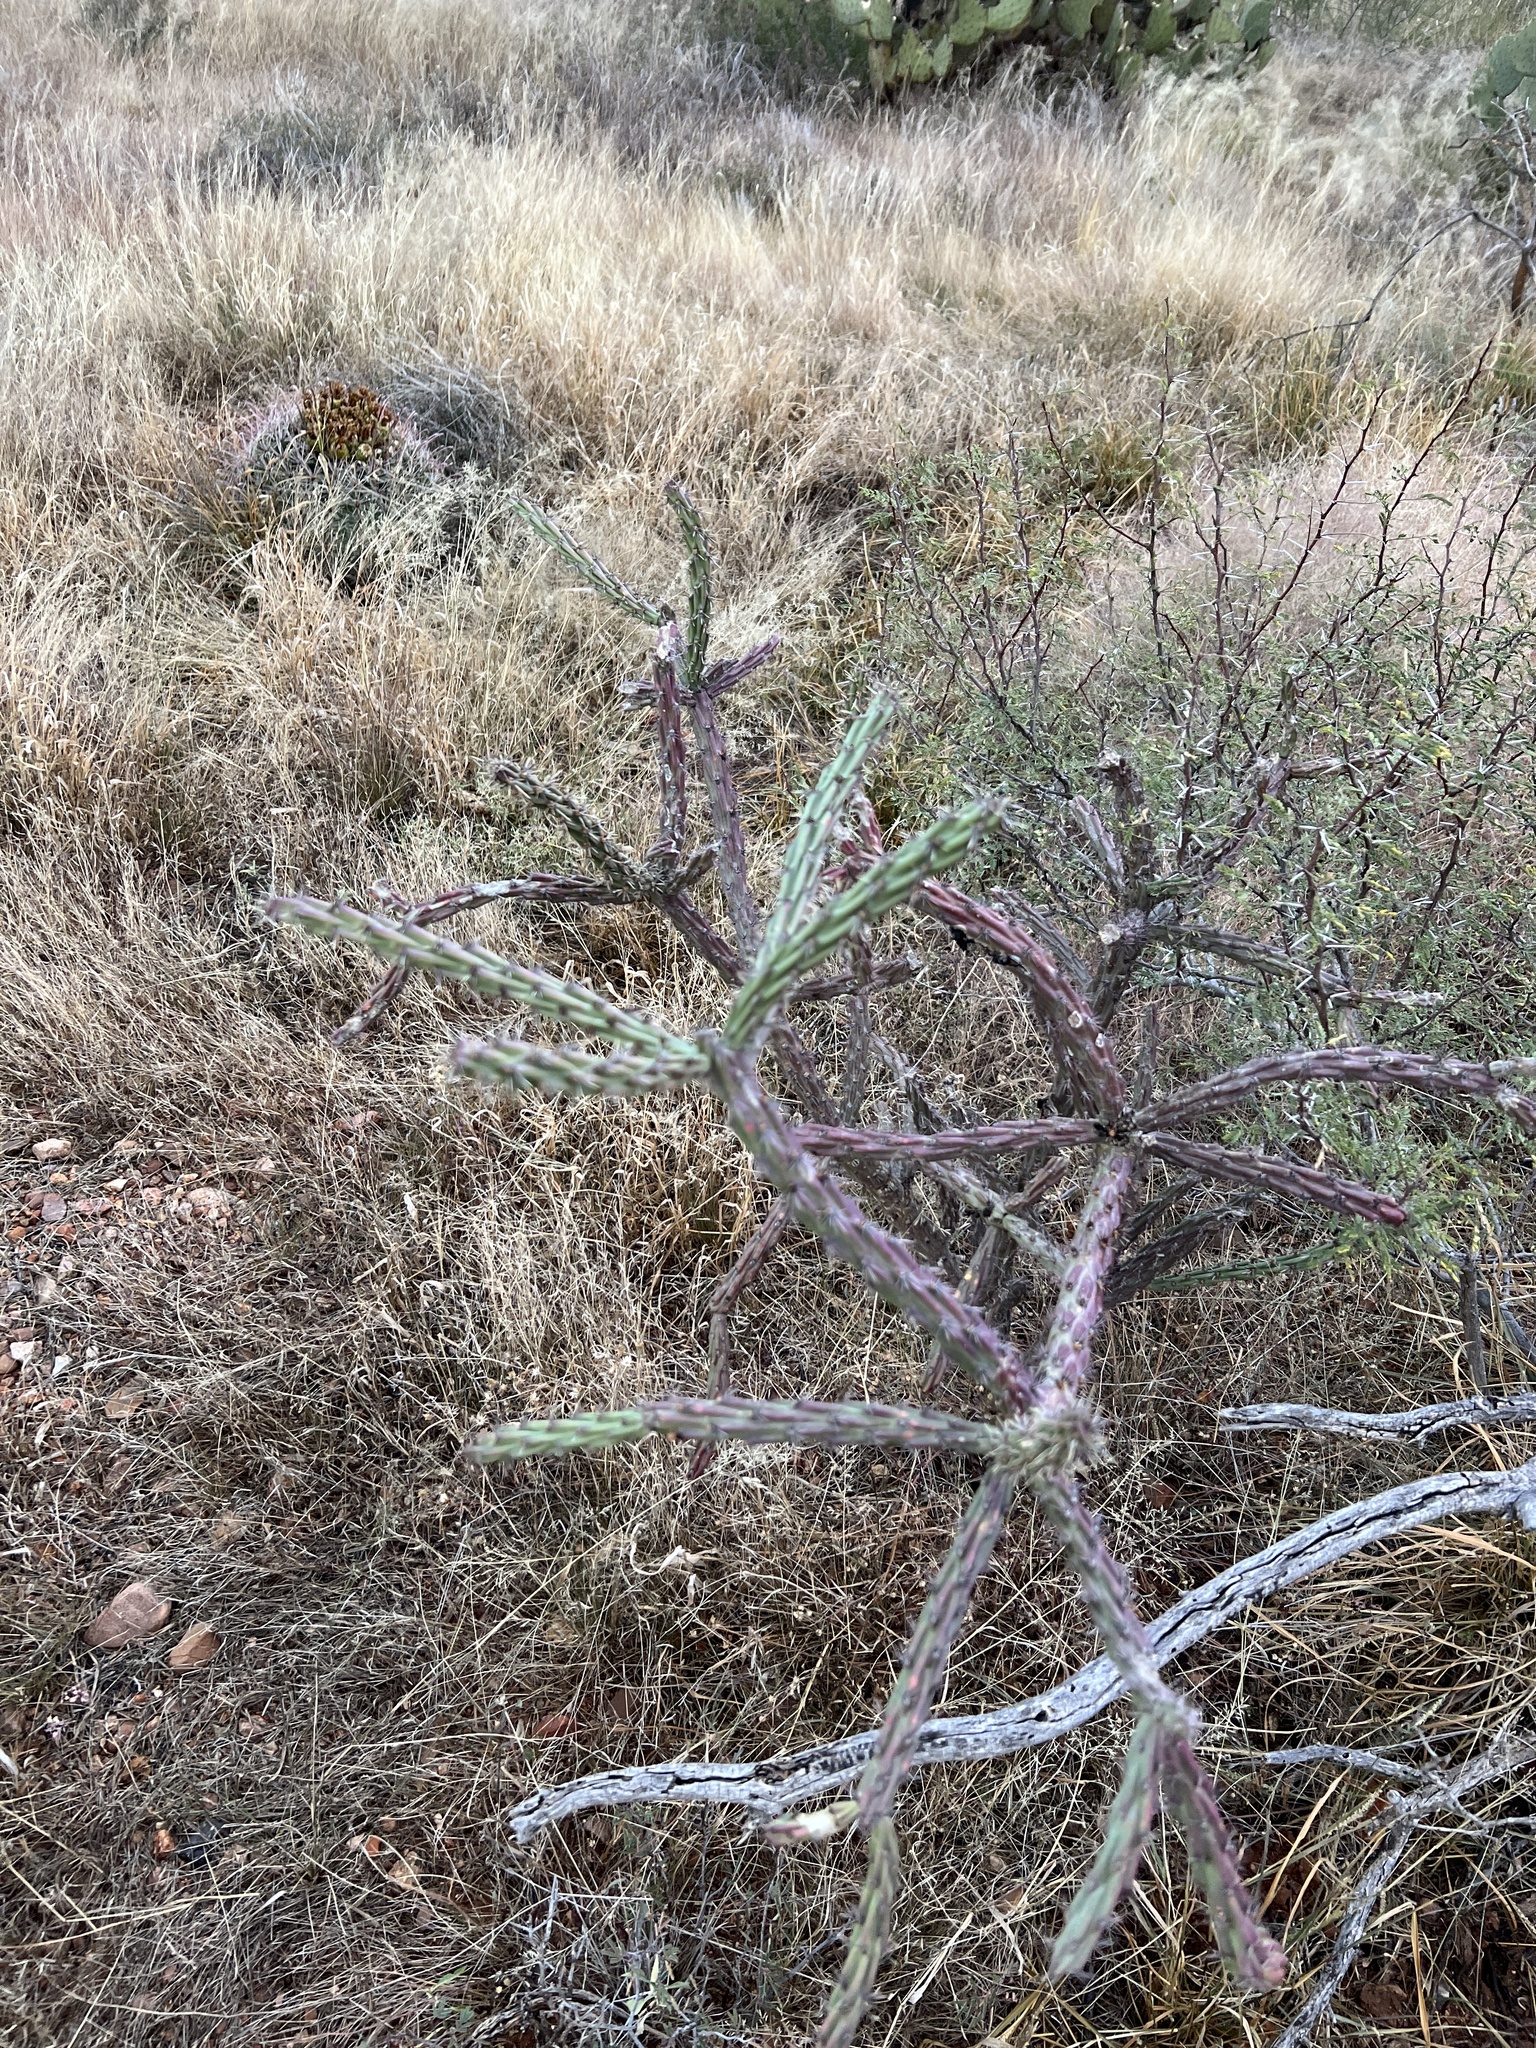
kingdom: Plantae
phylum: Tracheophyta
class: Magnoliopsida
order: Caryophyllales
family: Cactaceae
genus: Cylindropuntia
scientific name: Cylindropuntia thurberi
